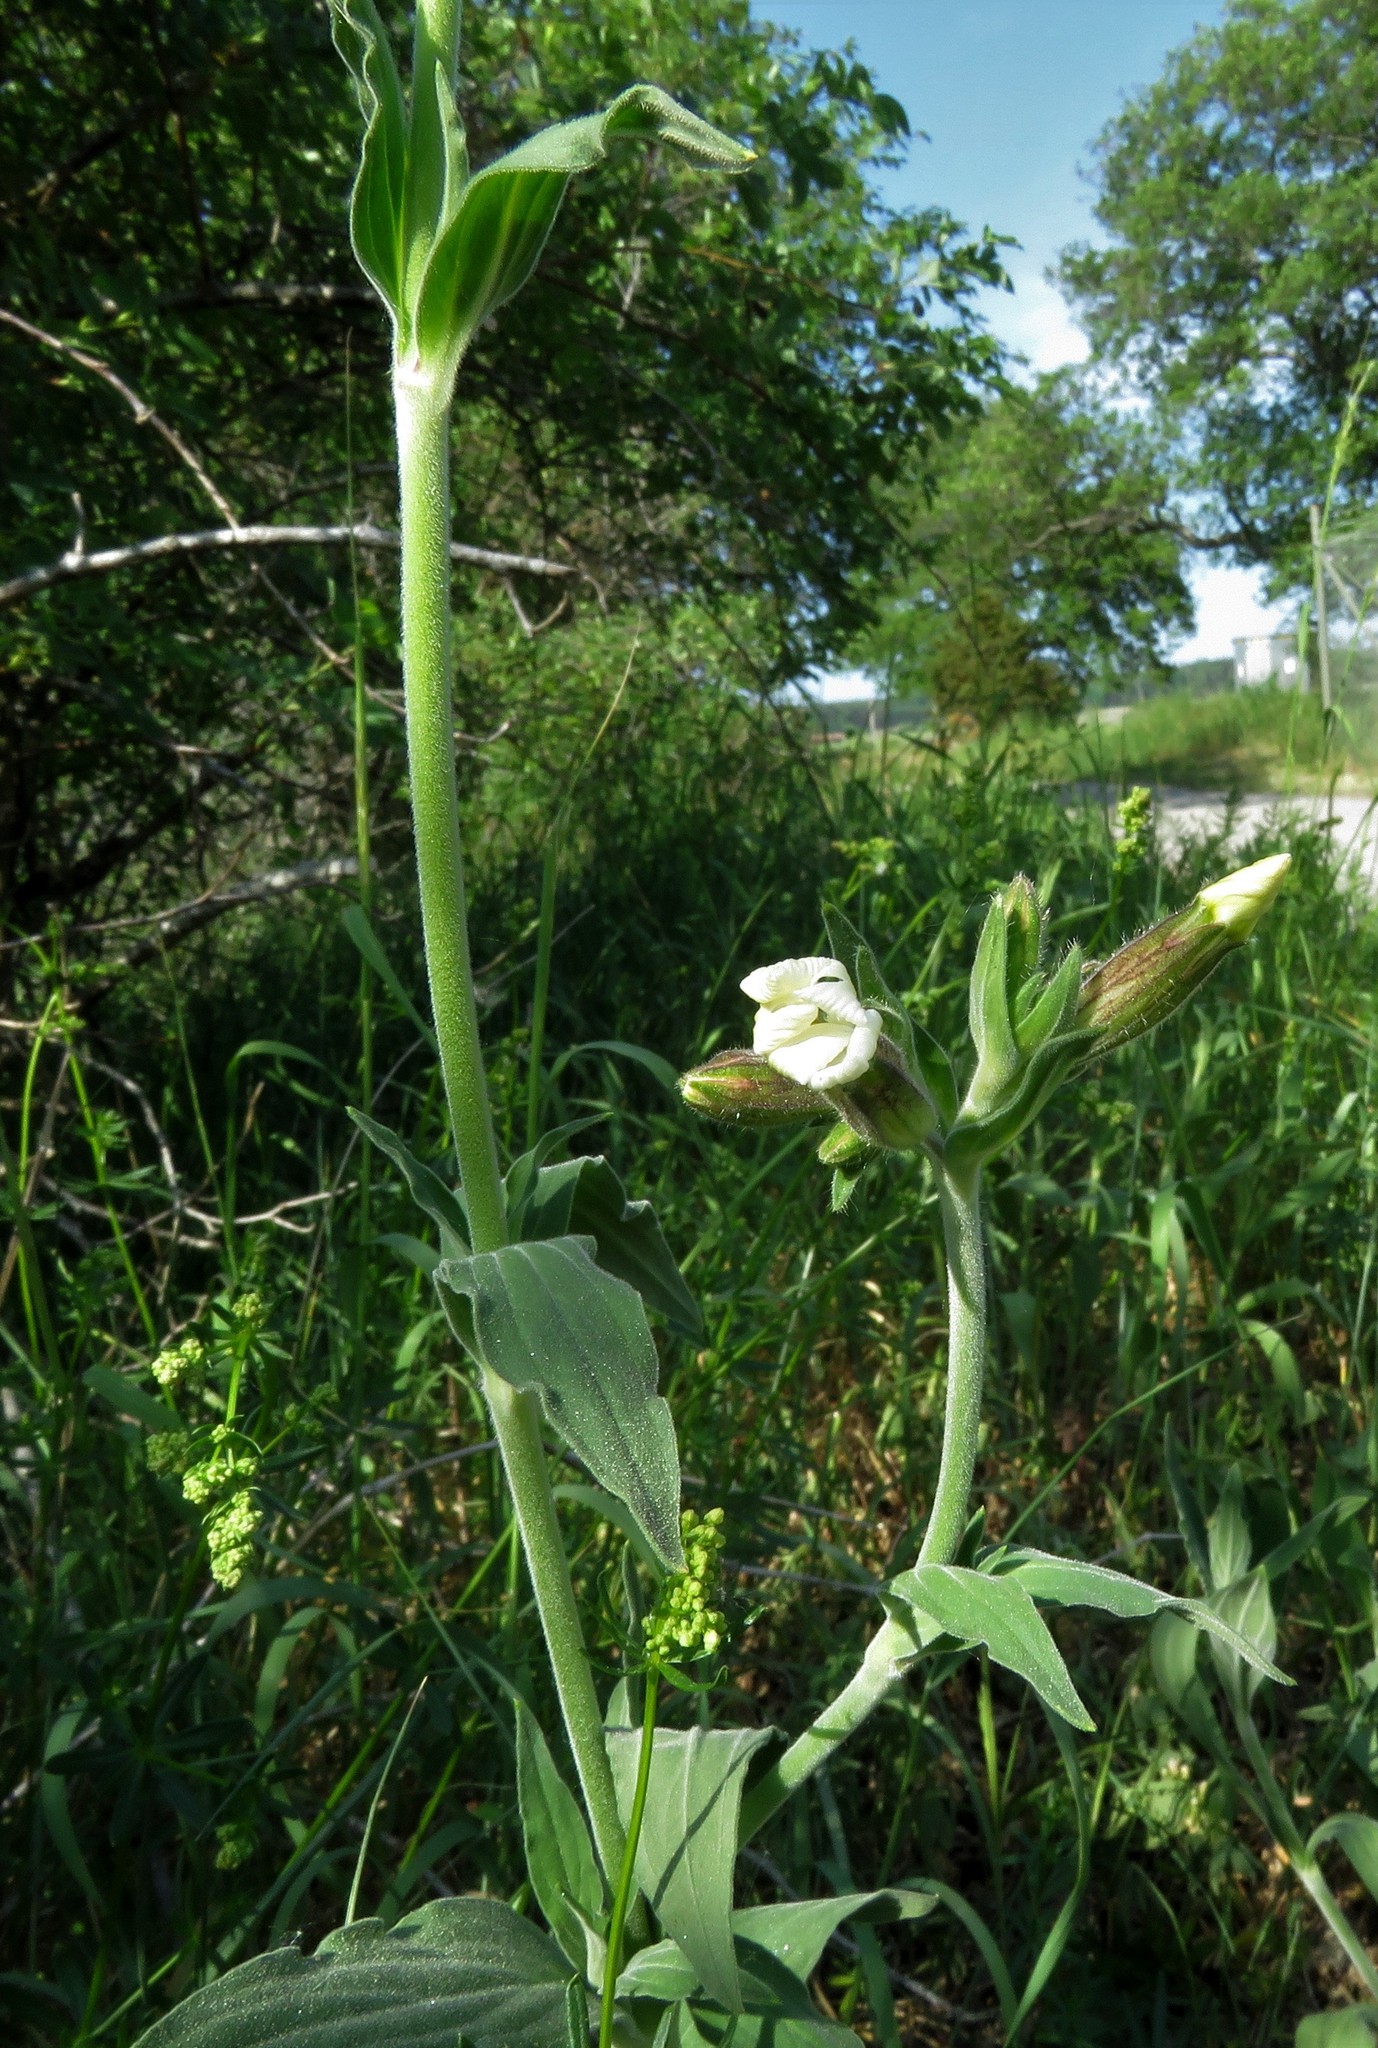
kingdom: Plantae
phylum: Tracheophyta
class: Magnoliopsida
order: Caryophyllales
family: Caryophyllaceae
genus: Silene
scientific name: Silene latifolia
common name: White campion
